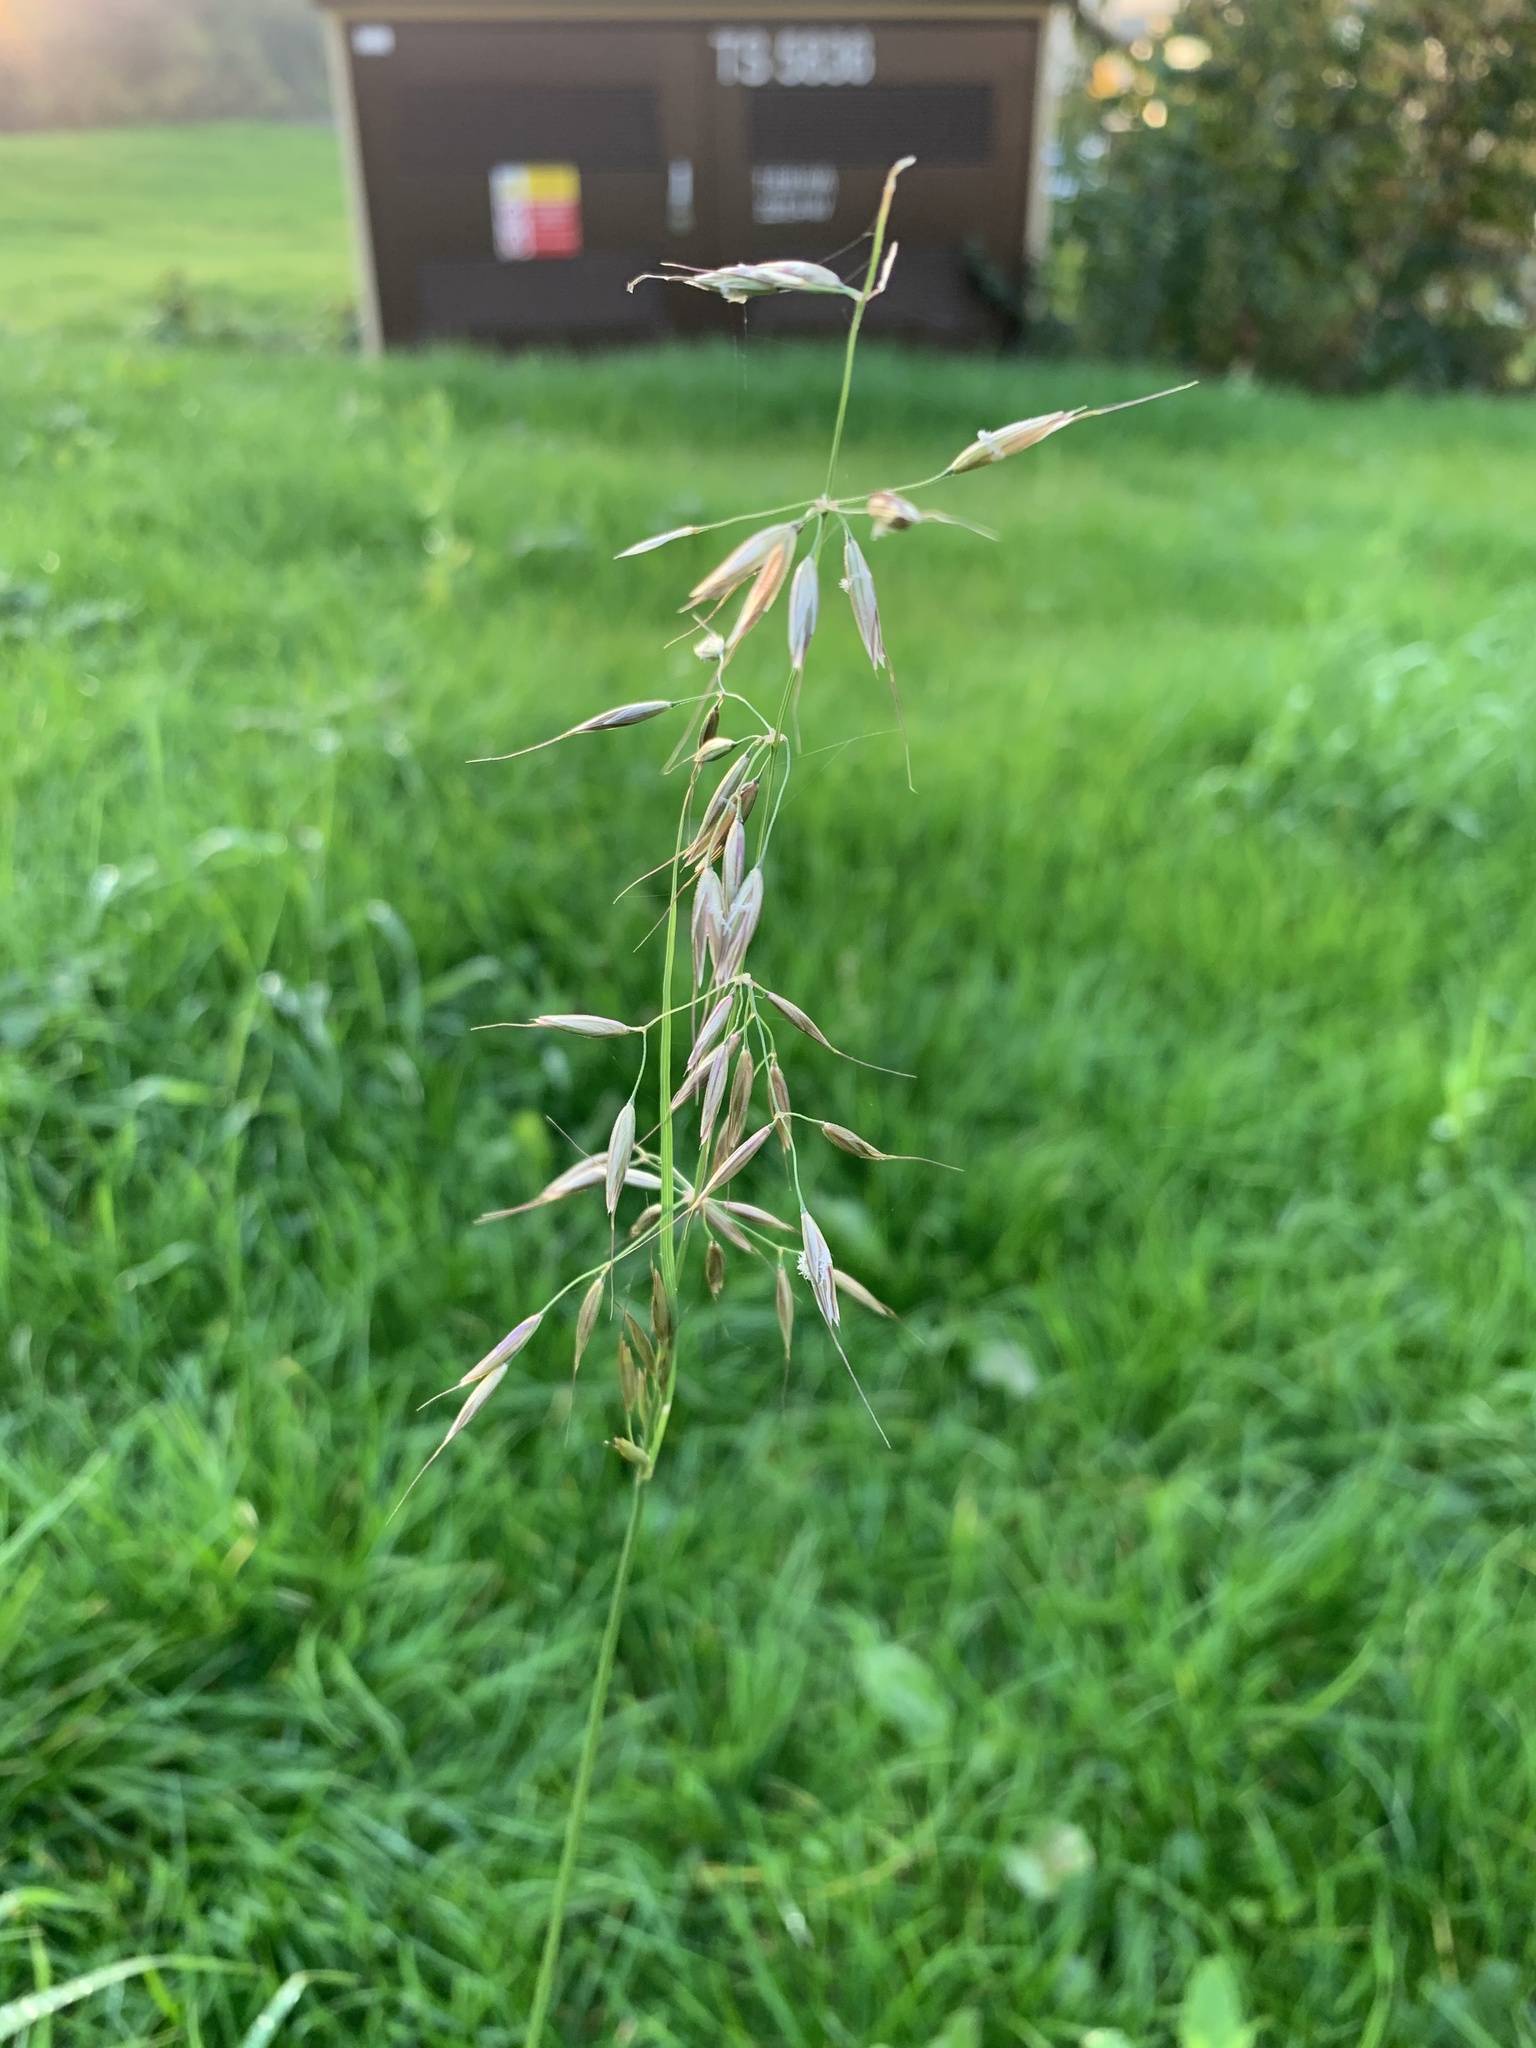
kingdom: Plantae
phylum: Tracheophyta
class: Liliopsida
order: Poales
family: Poaceae
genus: Arrhenatherum
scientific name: Arrhenatherum elatius
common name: Tall oatgrass
